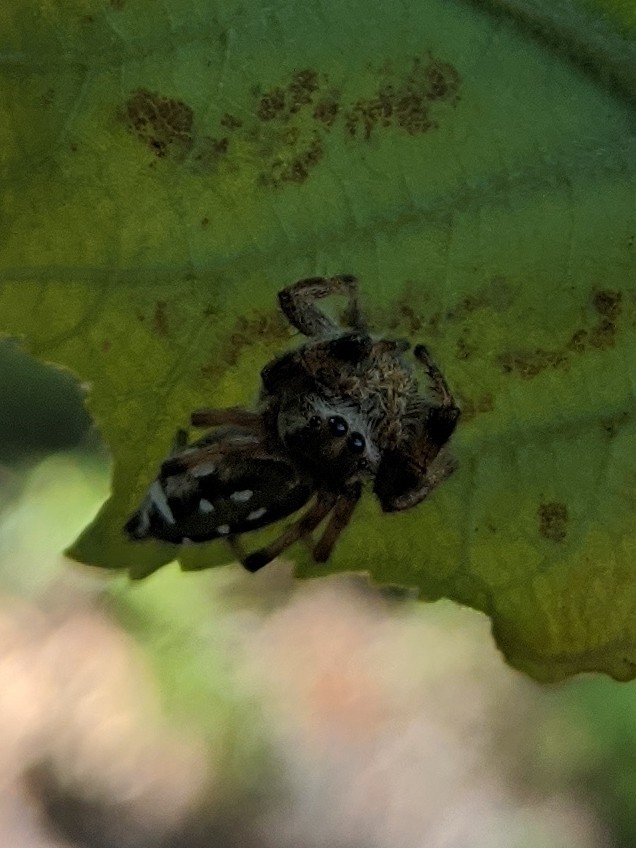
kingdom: Animalia
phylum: Arthropoda
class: Arachnida
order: Araneae
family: Salticidae
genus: Paraphidippus
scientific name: Paraphidippus aurantius
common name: Jumping spiders
